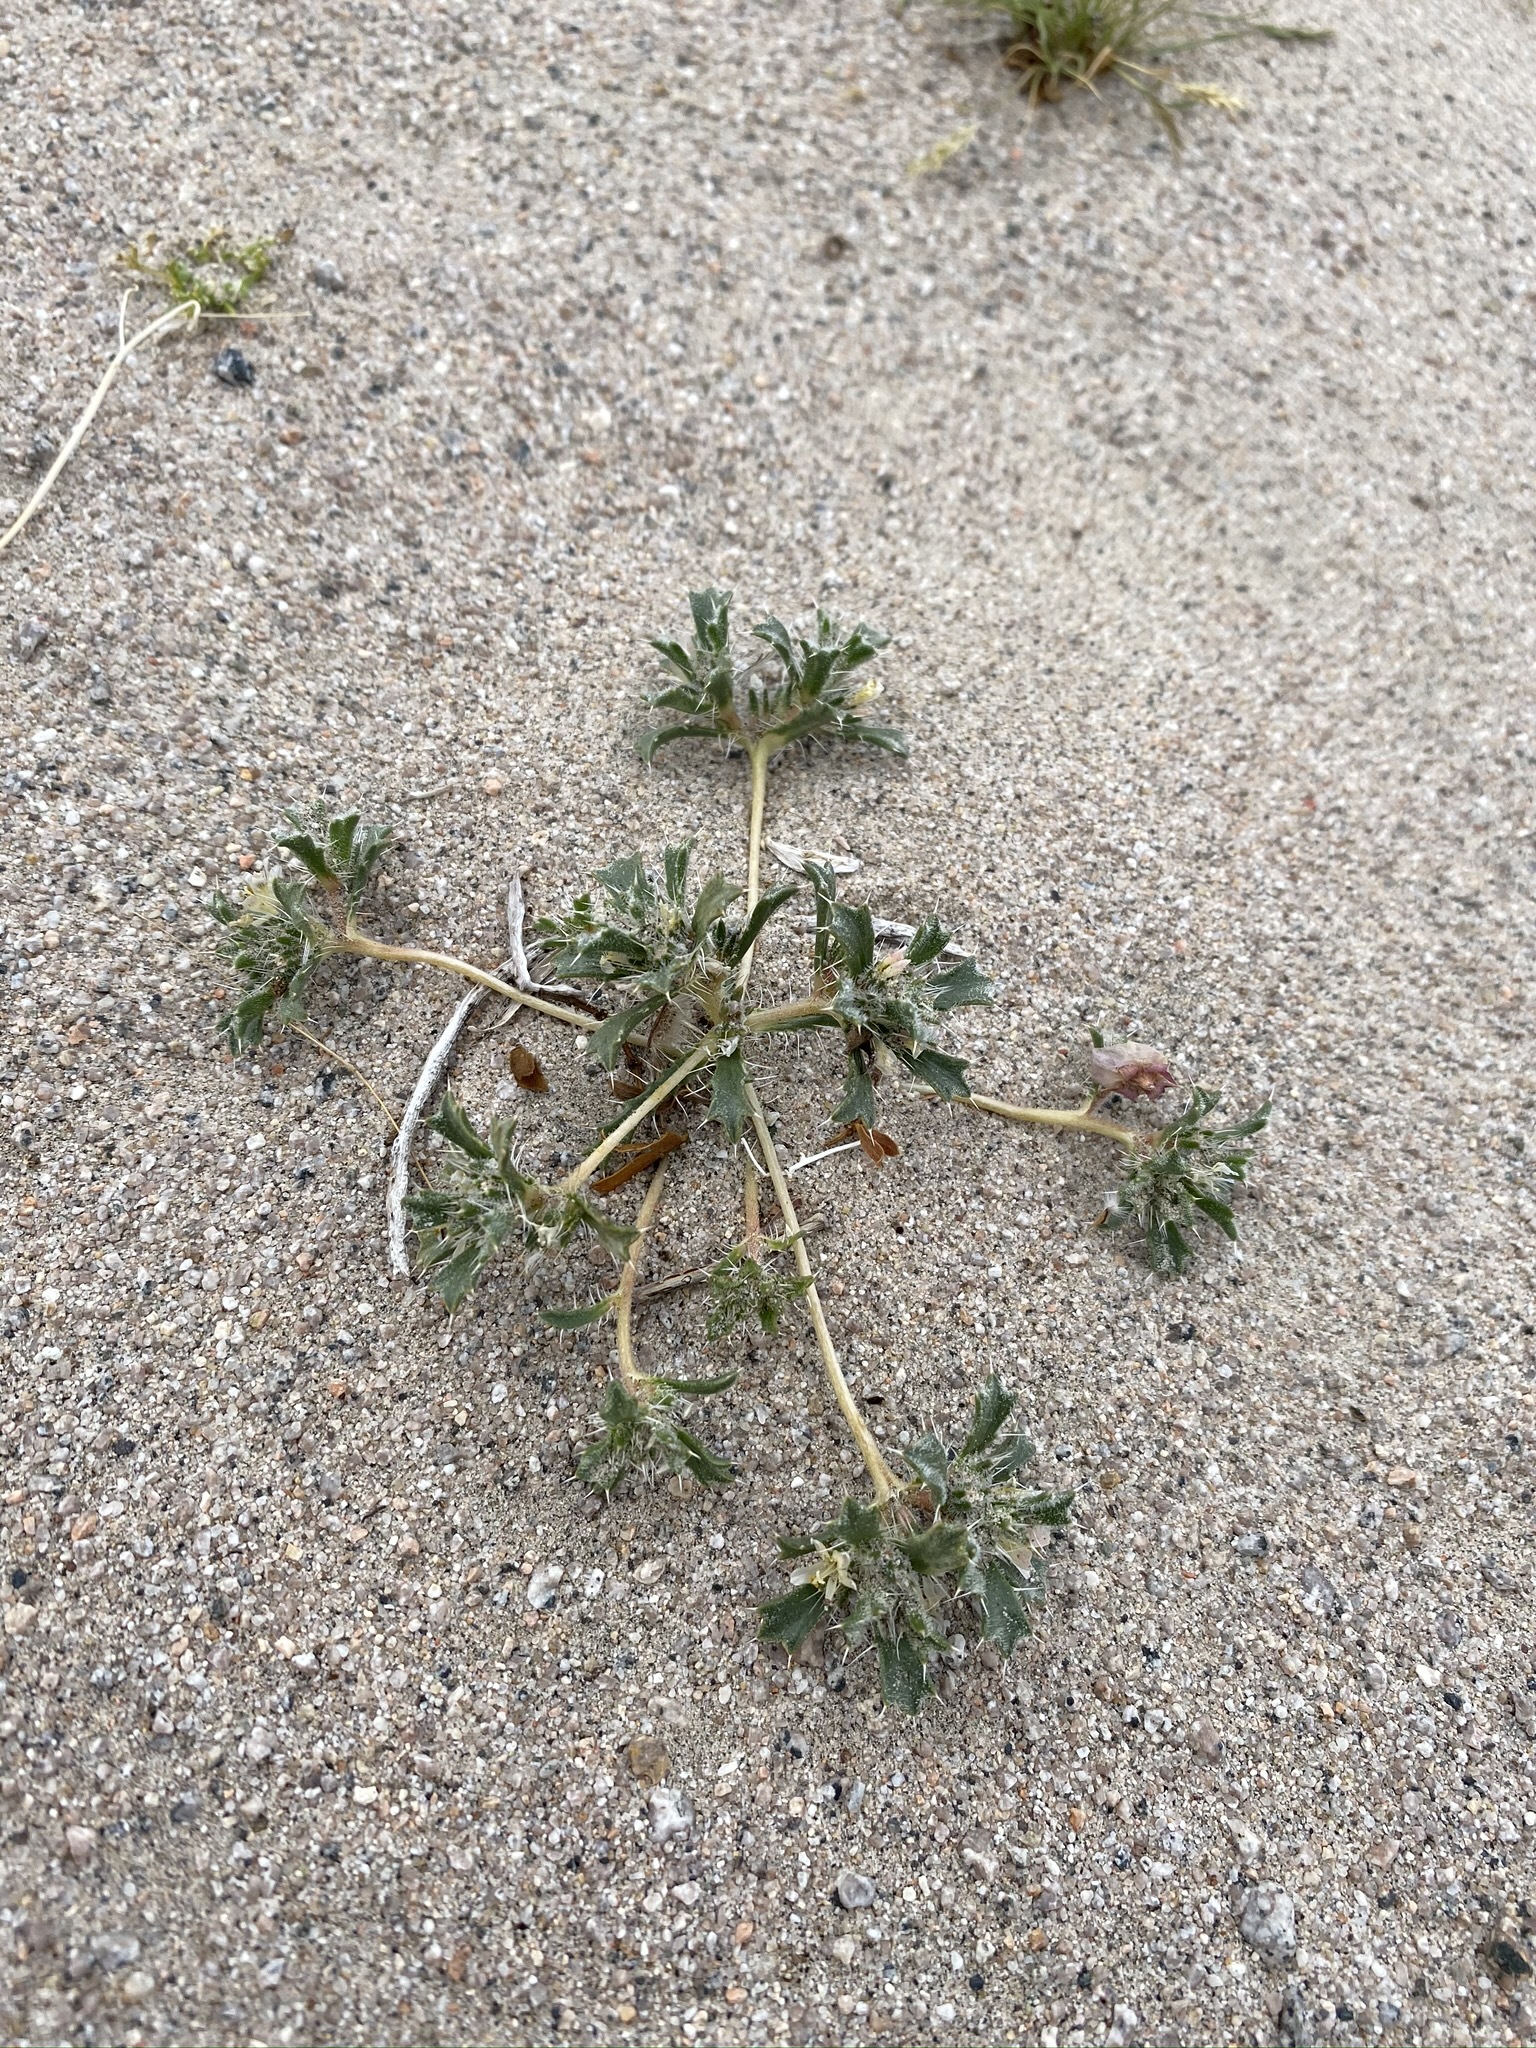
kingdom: Plantae
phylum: Tracheophyta
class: Magnoliopsida
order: Ericales
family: Polemoniaceae
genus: Loeseliastrum
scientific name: Loeseliastrum schottii
